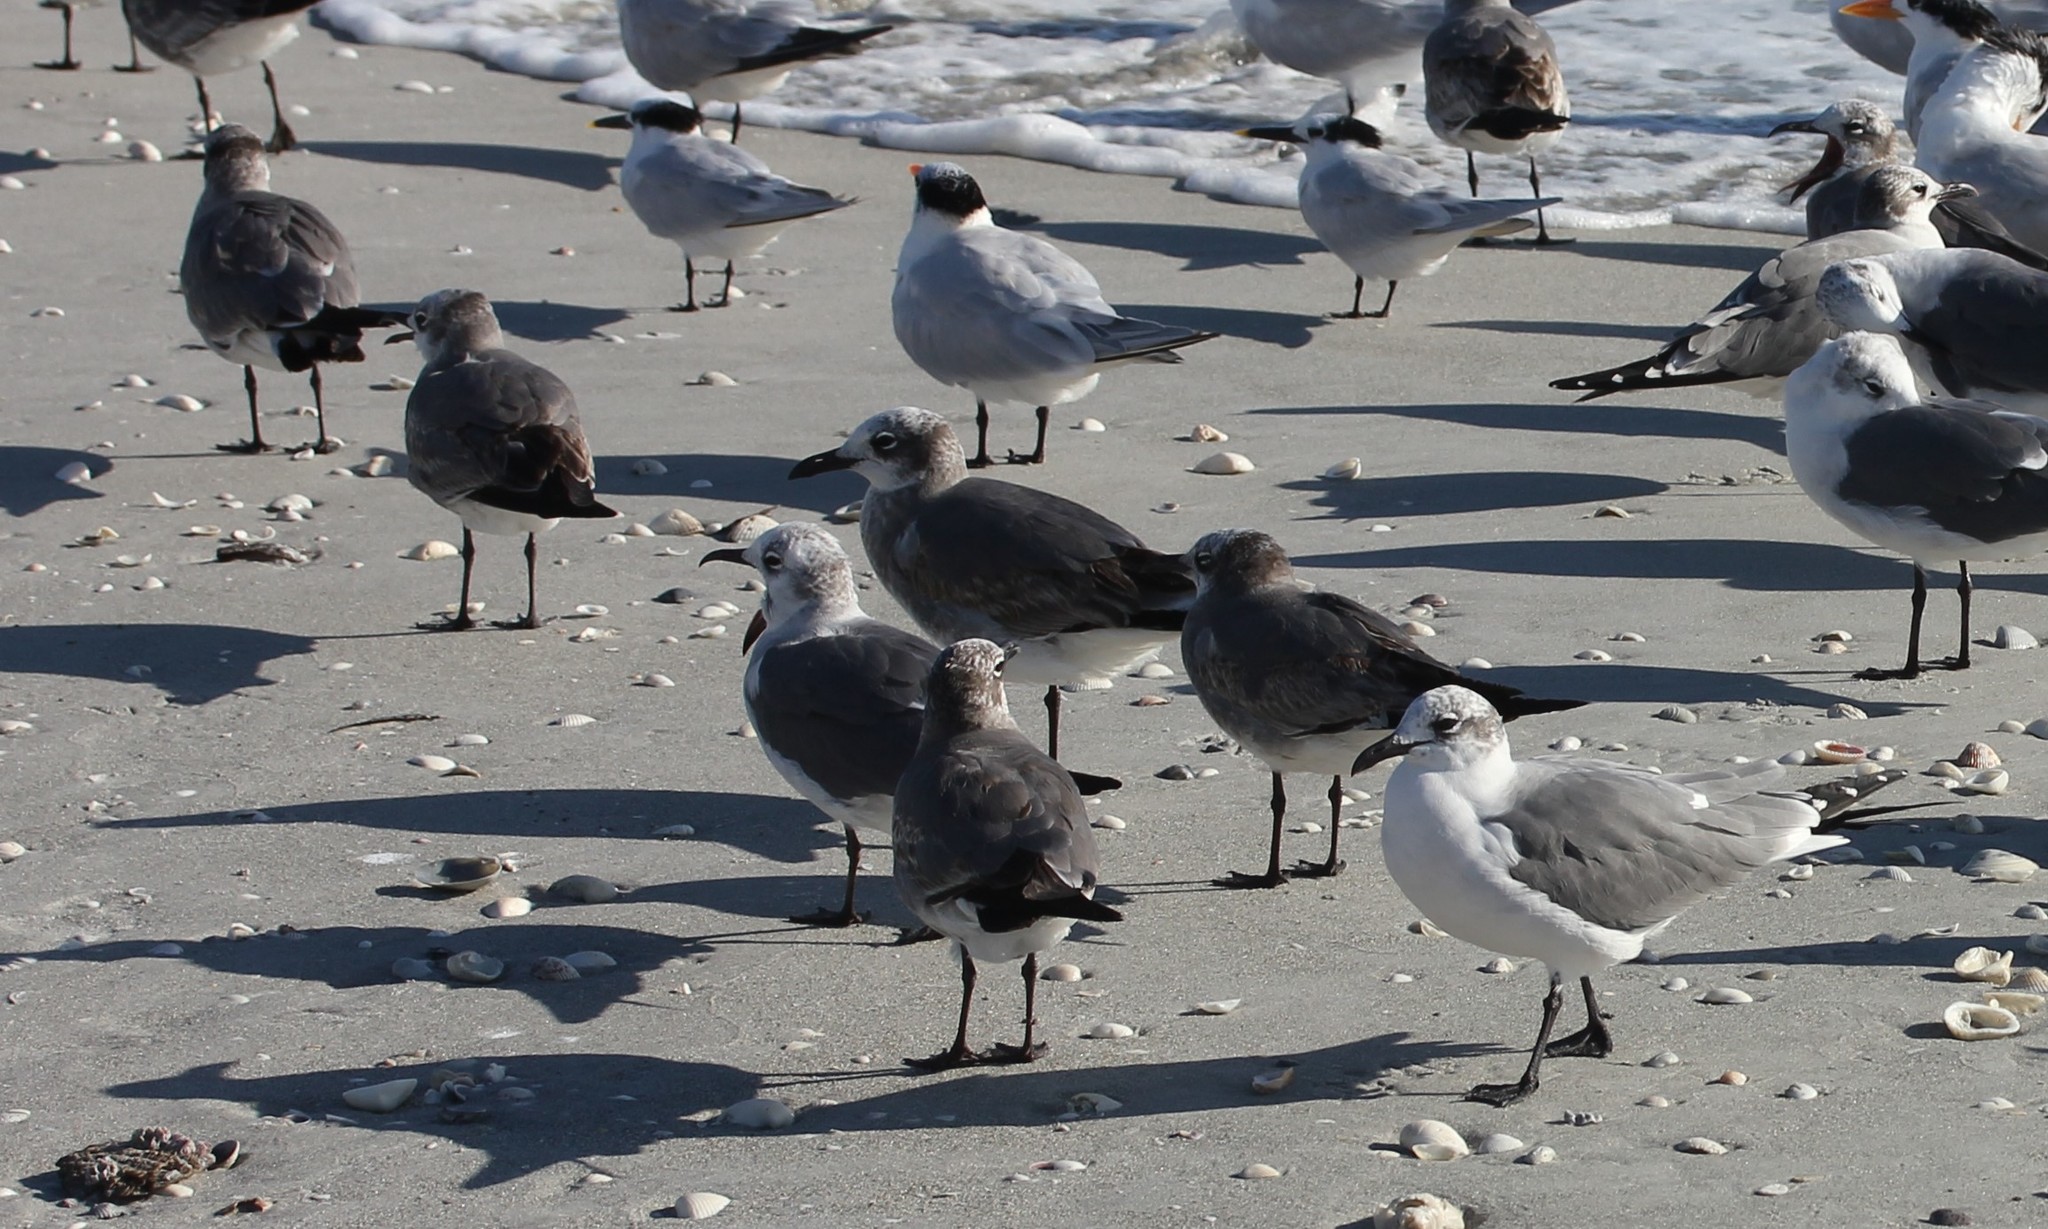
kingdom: Animalia
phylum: Chordata
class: Aves
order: Charadriiformes
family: Laridae
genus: Leucophaeus
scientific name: Leucophaeus atricilla
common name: Laughing gull
